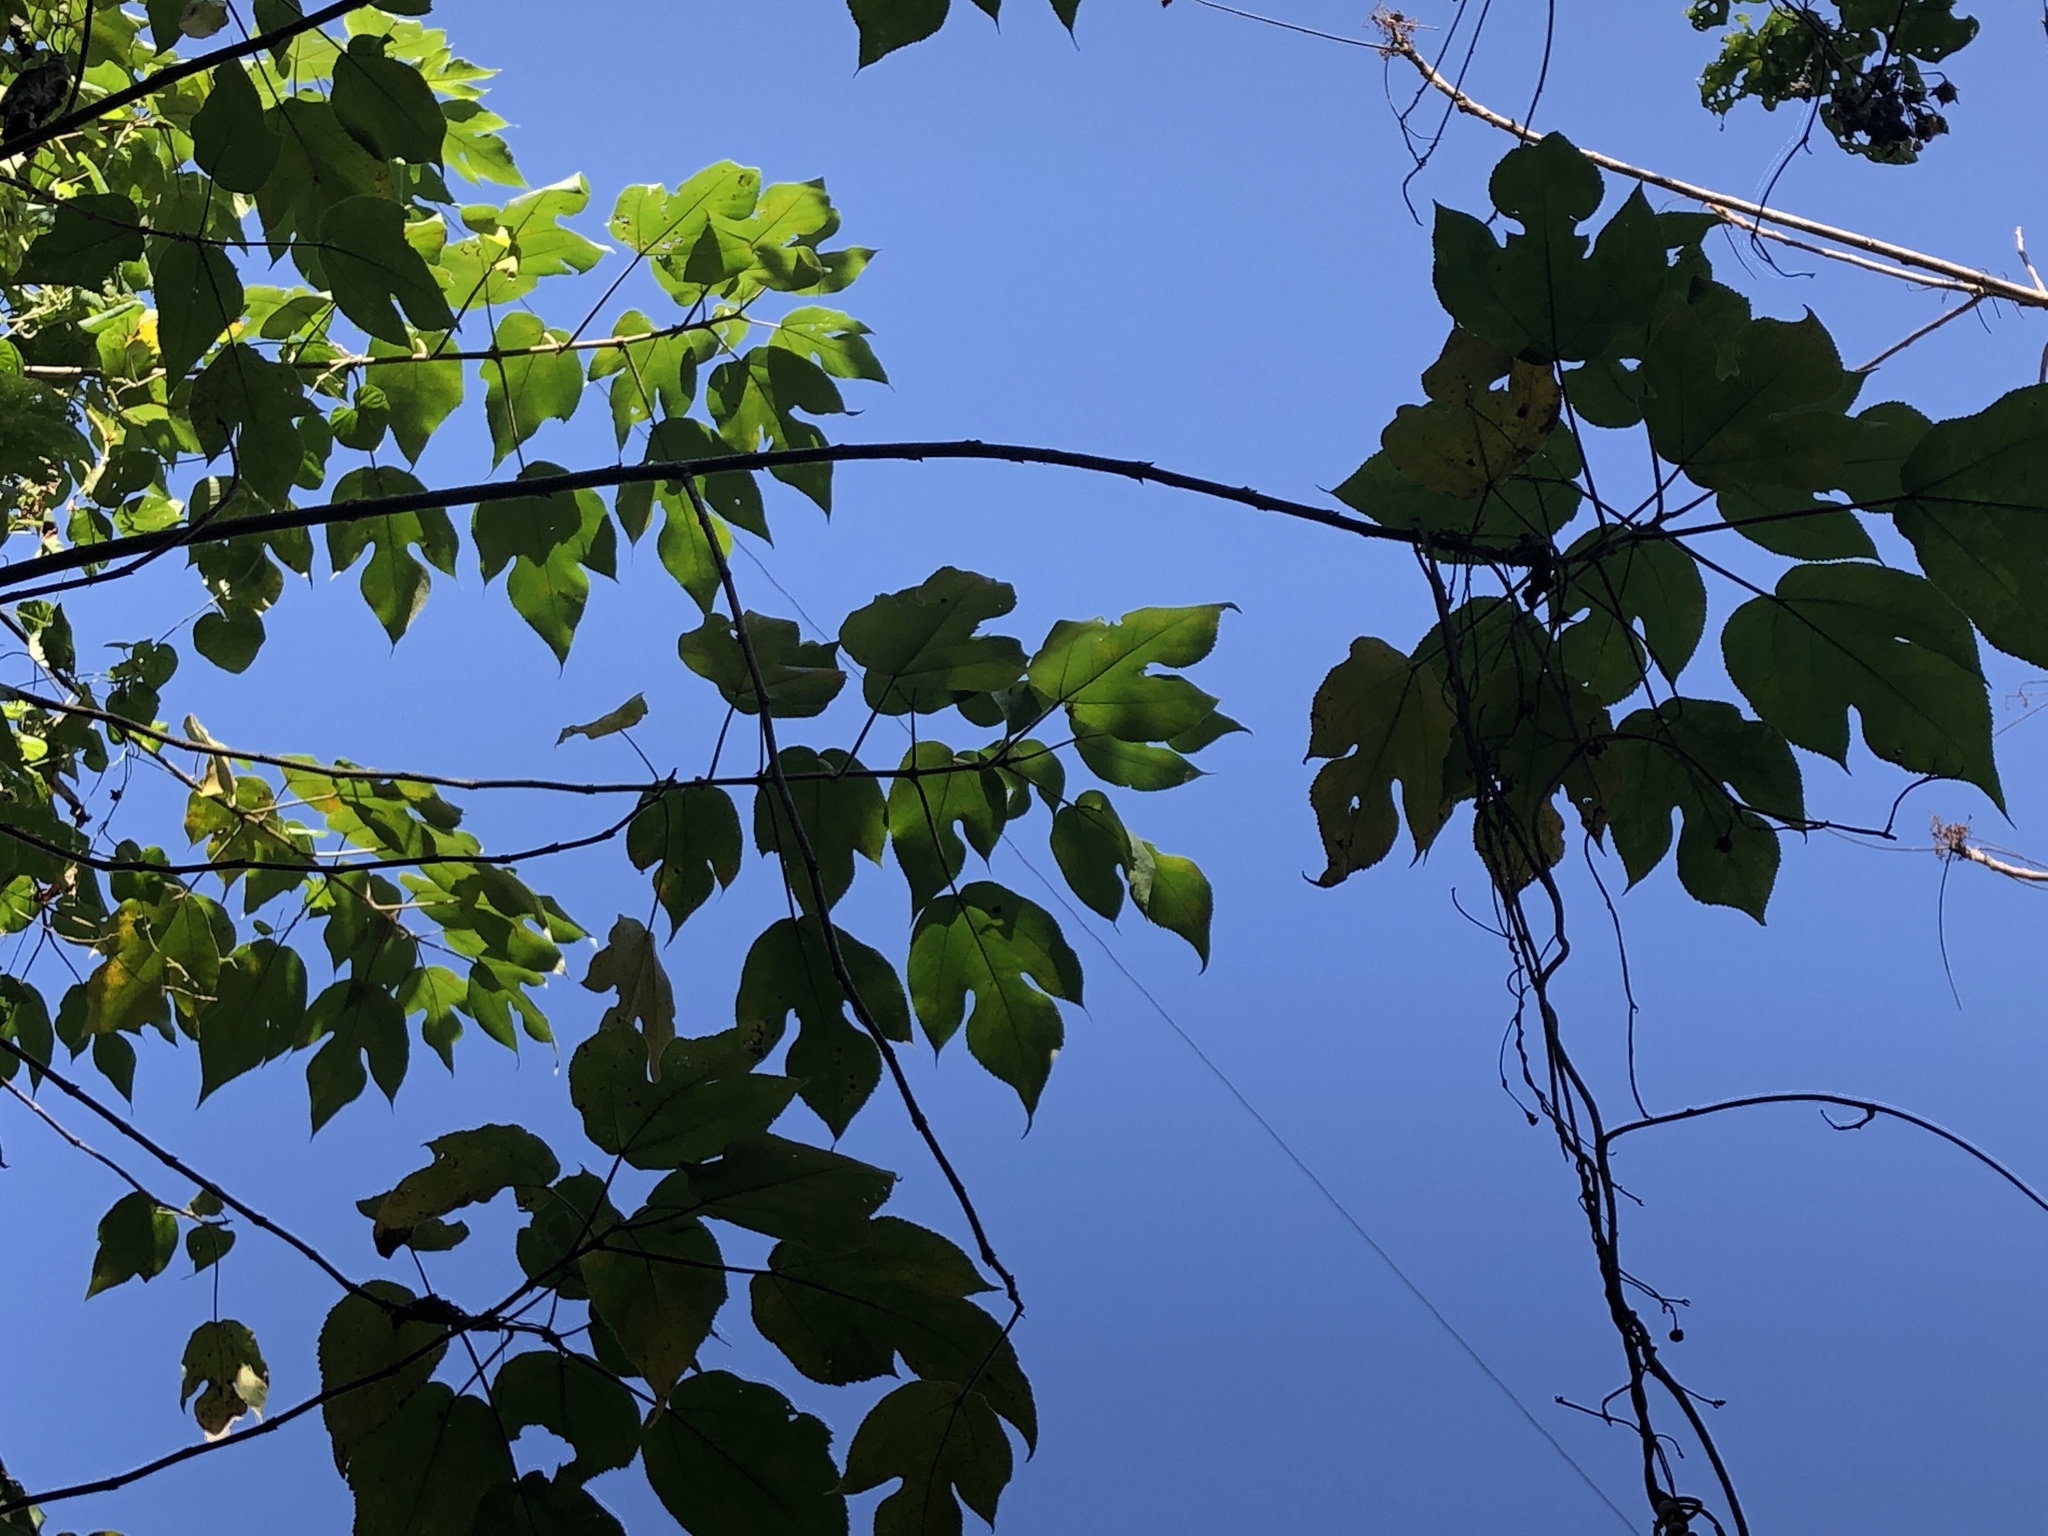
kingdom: Plantae
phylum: Tracheophyta
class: Magnoliopsida
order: Rosales
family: Moraceae
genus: Broussonetia
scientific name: Broussonetia papyrifera
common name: Paper mulberry
